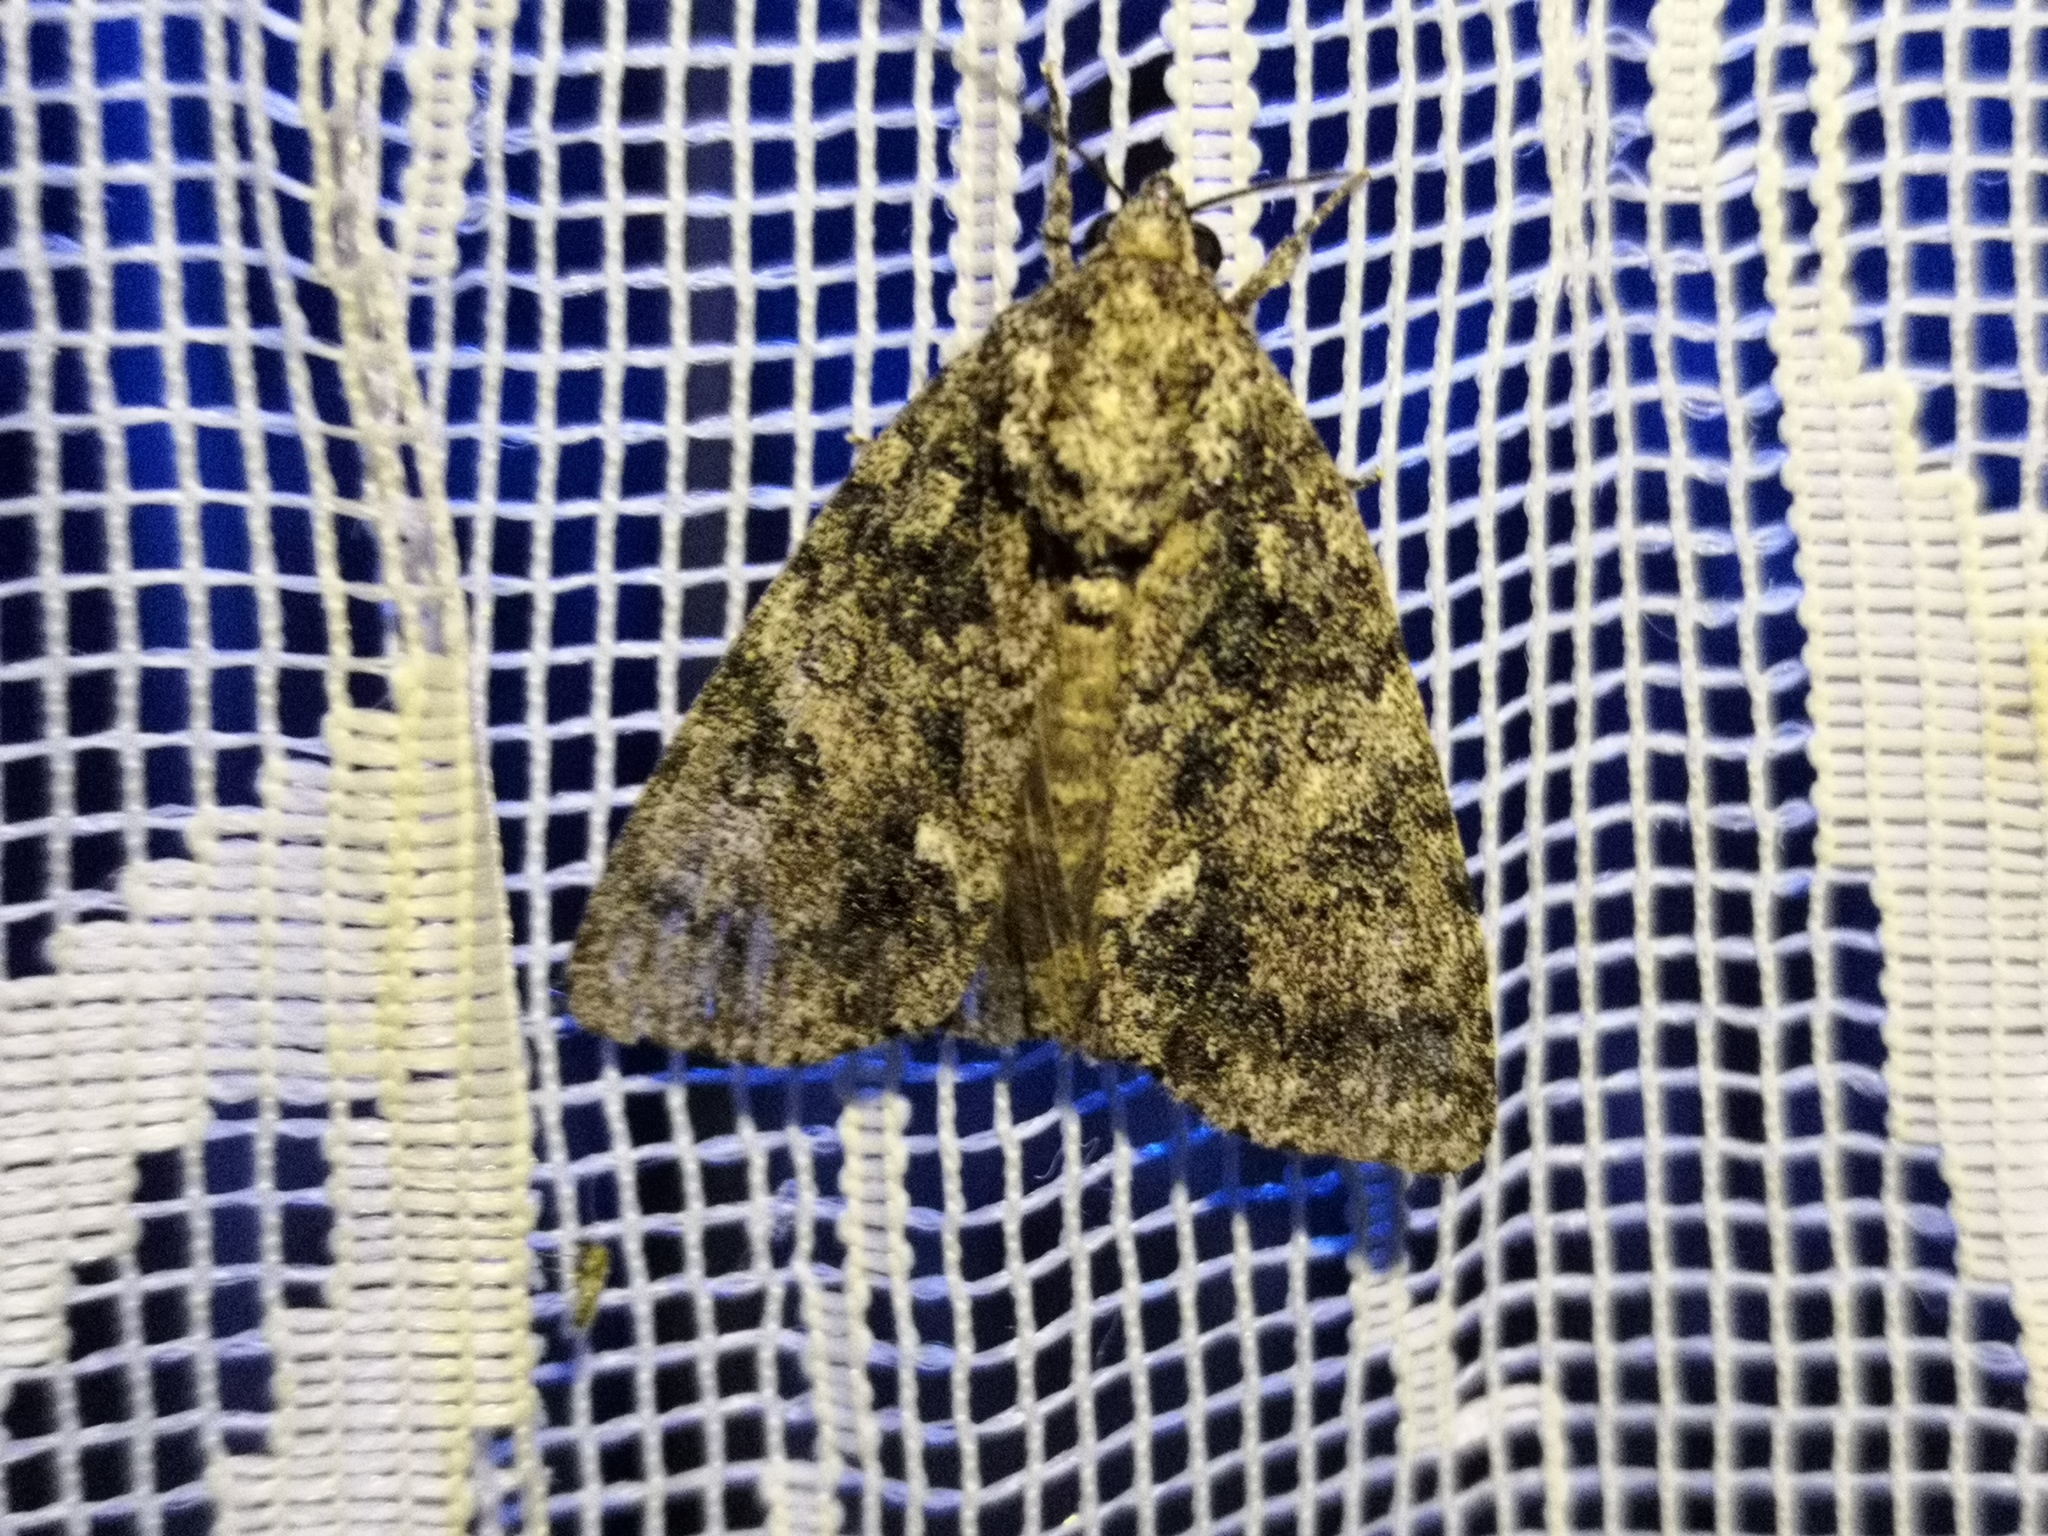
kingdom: Animalia
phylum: Arthropoda
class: Insecta
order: Lepidoptera
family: Noctuidae
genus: Acronicta
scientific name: Acronicta rumicis
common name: Knot grass
